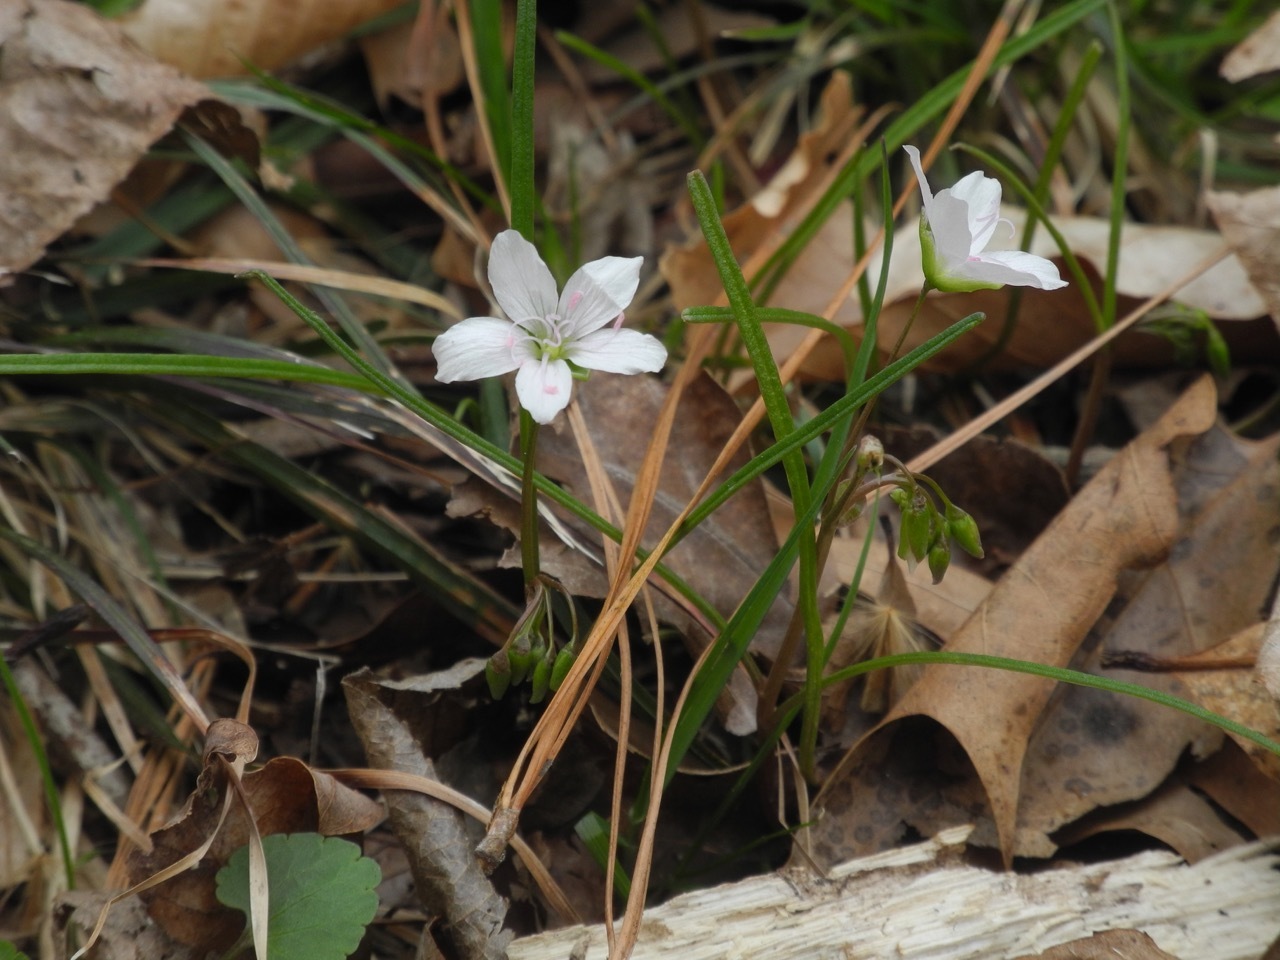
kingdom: Plantae
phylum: Tracheophyta
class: Magnoliopsida
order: Caryophyllales
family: Montiaceae
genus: Claytonia
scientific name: Claytonia virginica
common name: Virginia springbeauty
